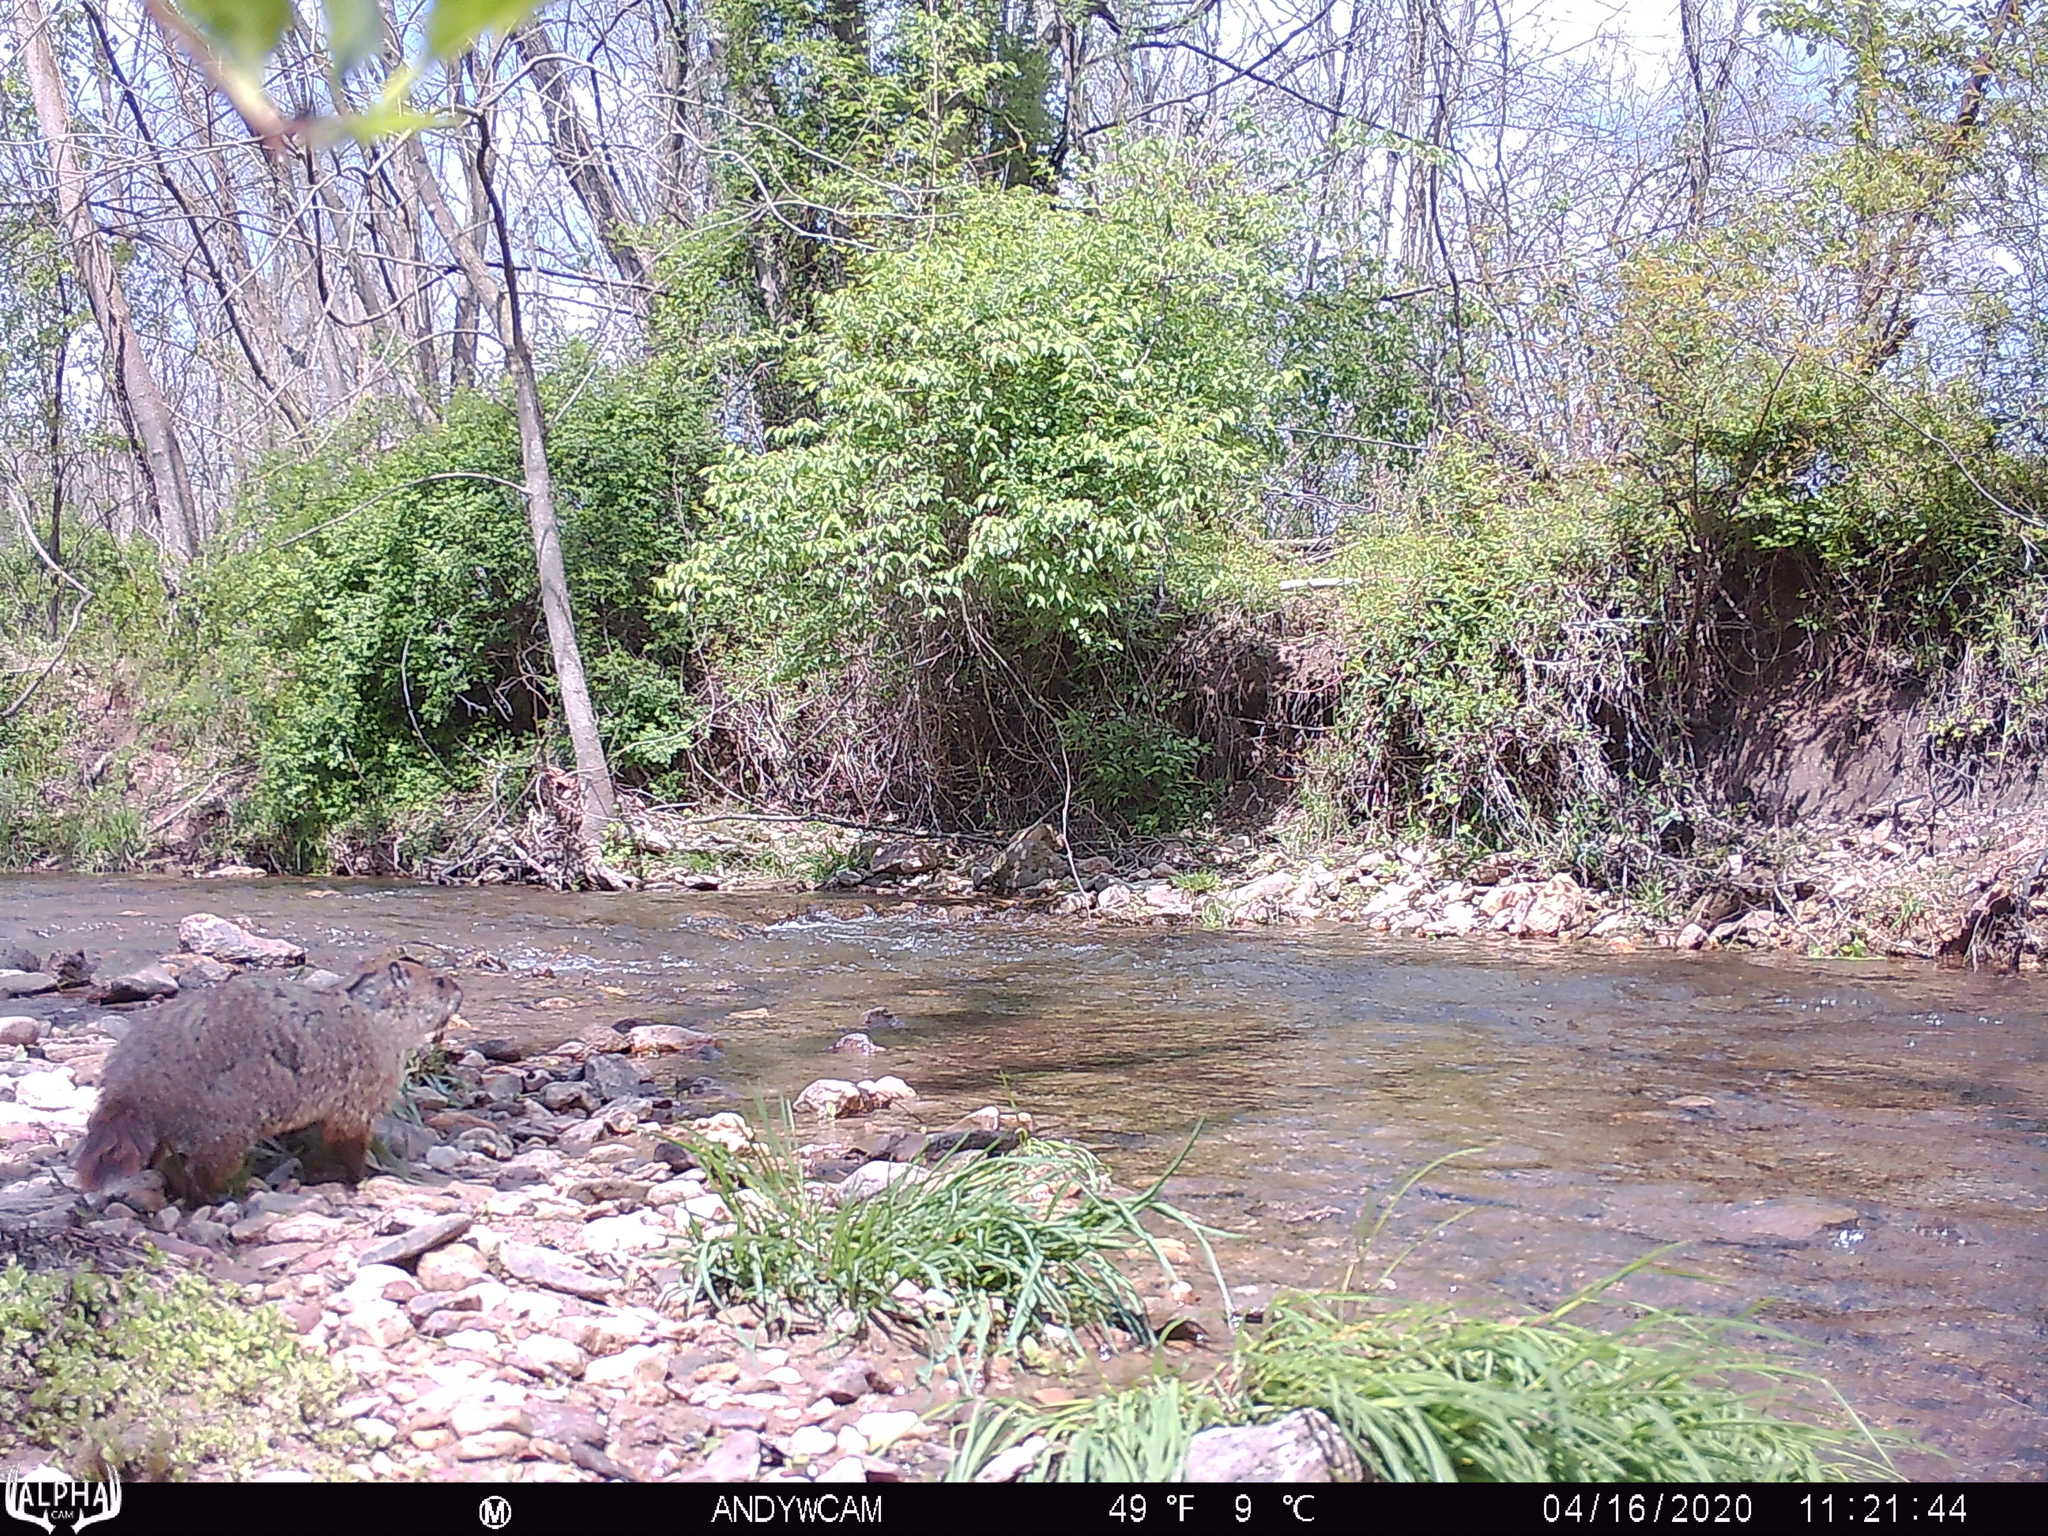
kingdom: Animalia
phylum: Chordata
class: Mammalia
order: Rodentia
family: Sciuridae
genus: Marmota
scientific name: Marmota monax
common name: Groundhog
